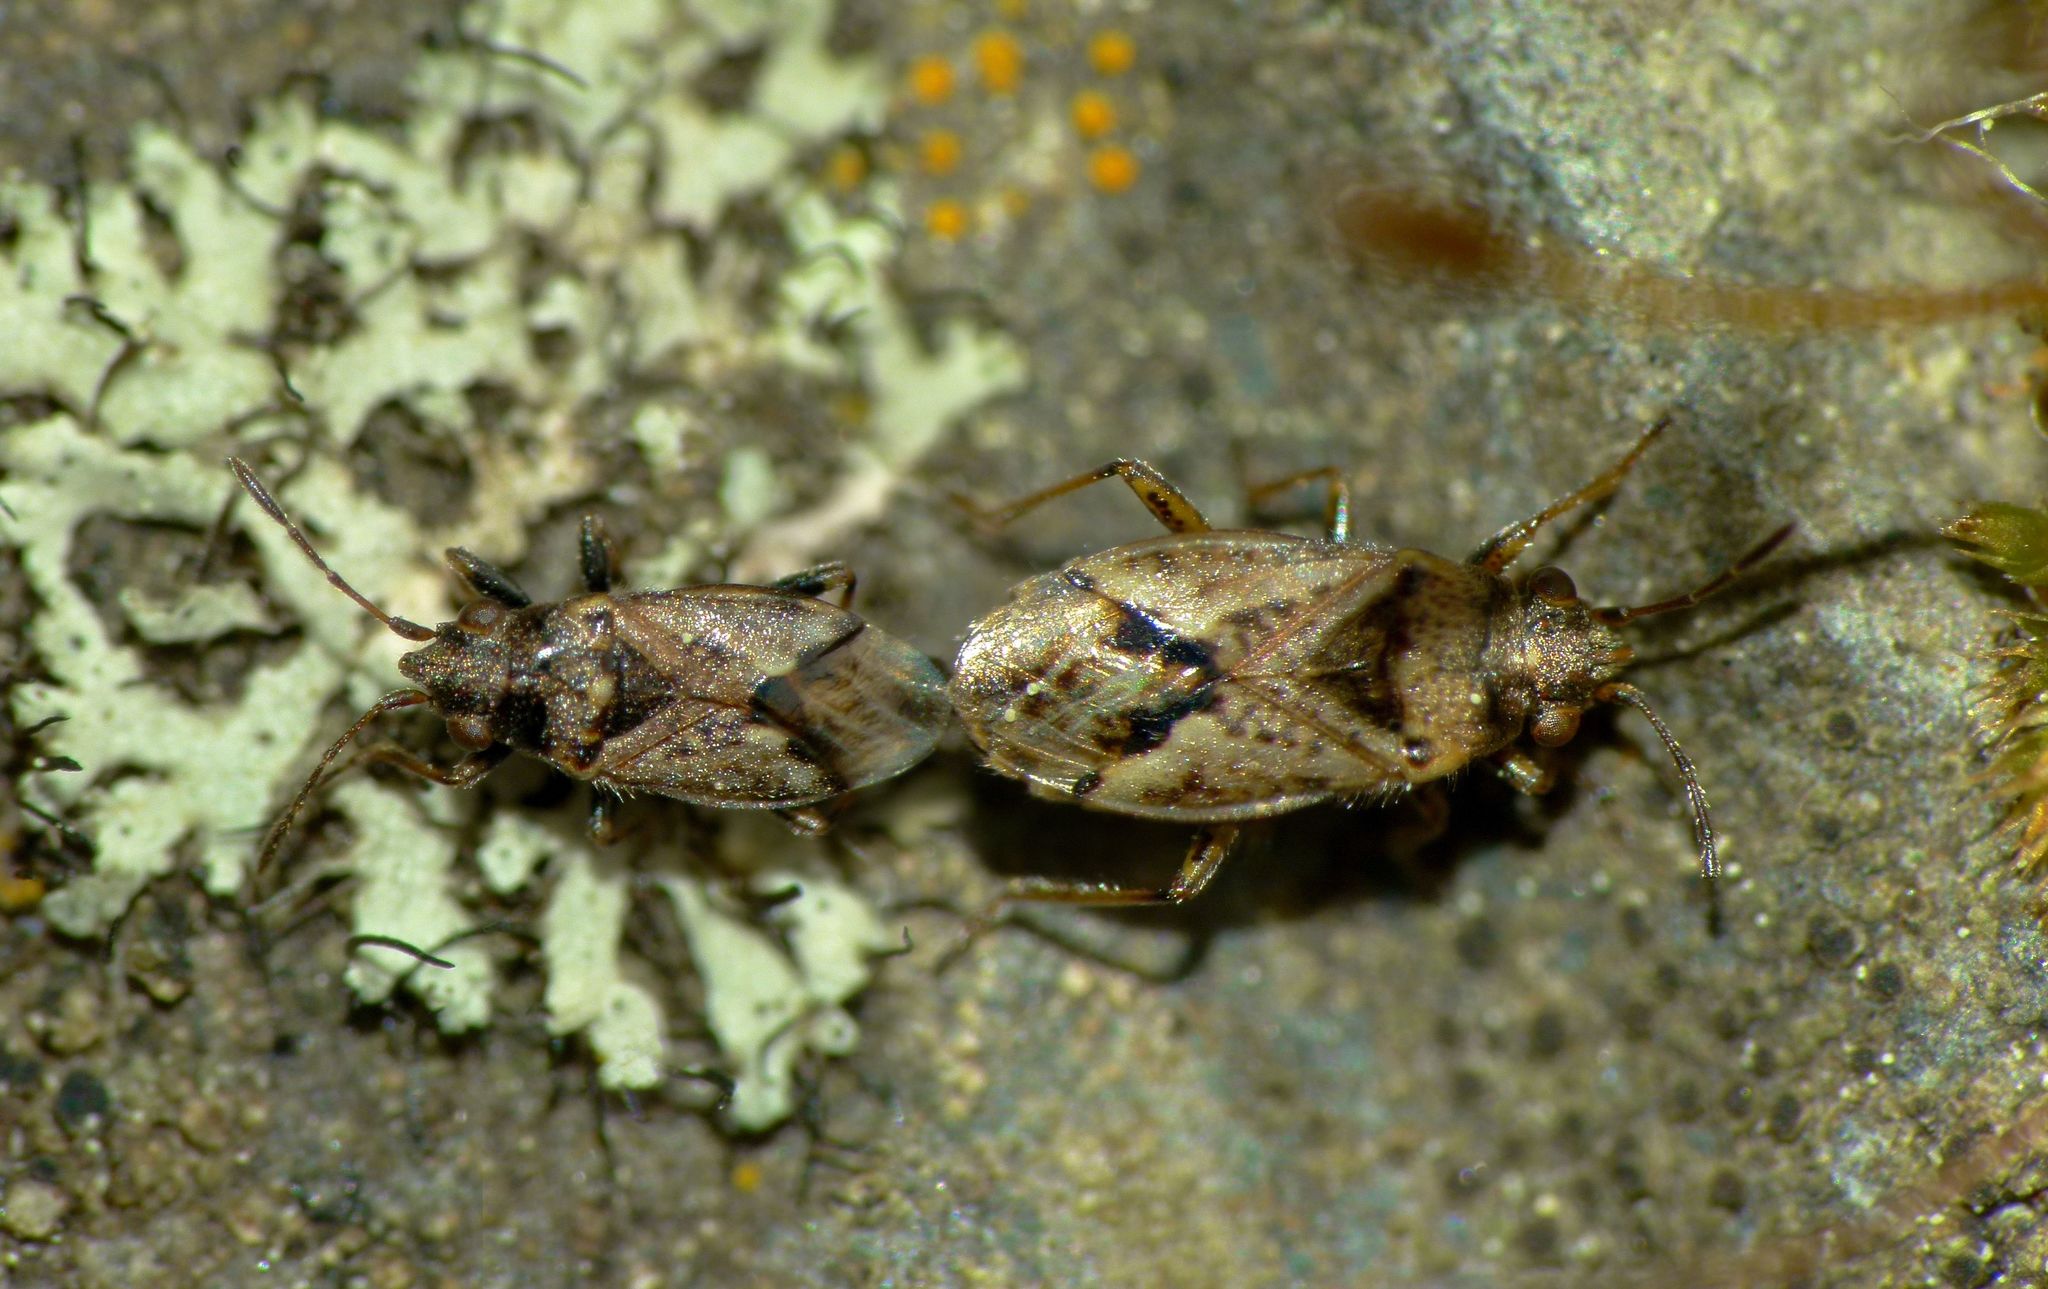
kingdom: Animalia
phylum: Arthropoda
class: Insecta
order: Hemiptera
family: Lygaeidae
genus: Nysius
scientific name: Nysius huttoni
